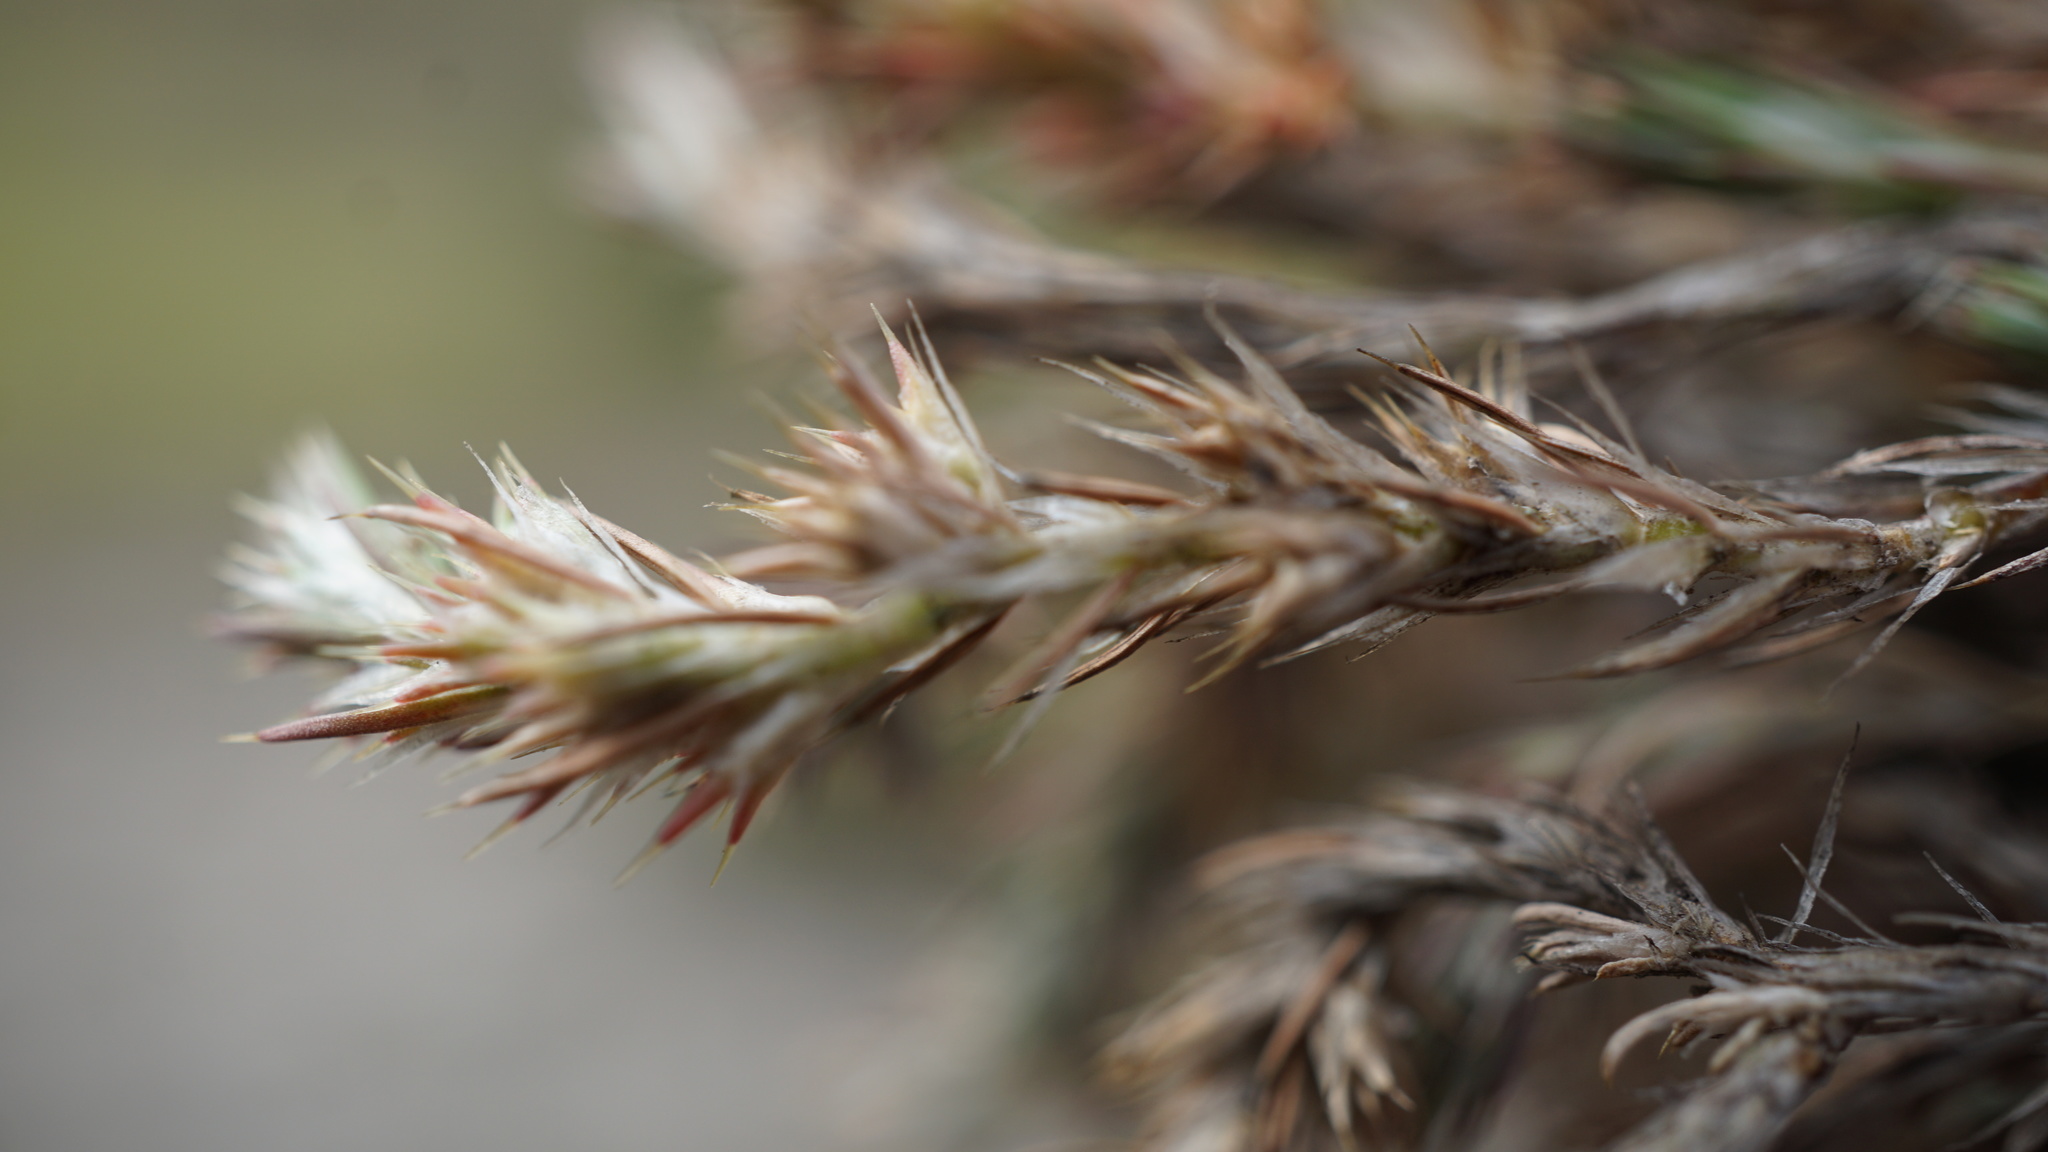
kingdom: Plantae
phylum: Tracheophyta
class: Magnoliopsida
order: Caryophyllales
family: Caryophyllaceae
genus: Cardionema
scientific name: Cardionema ramosissima
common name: Sandcarpet
